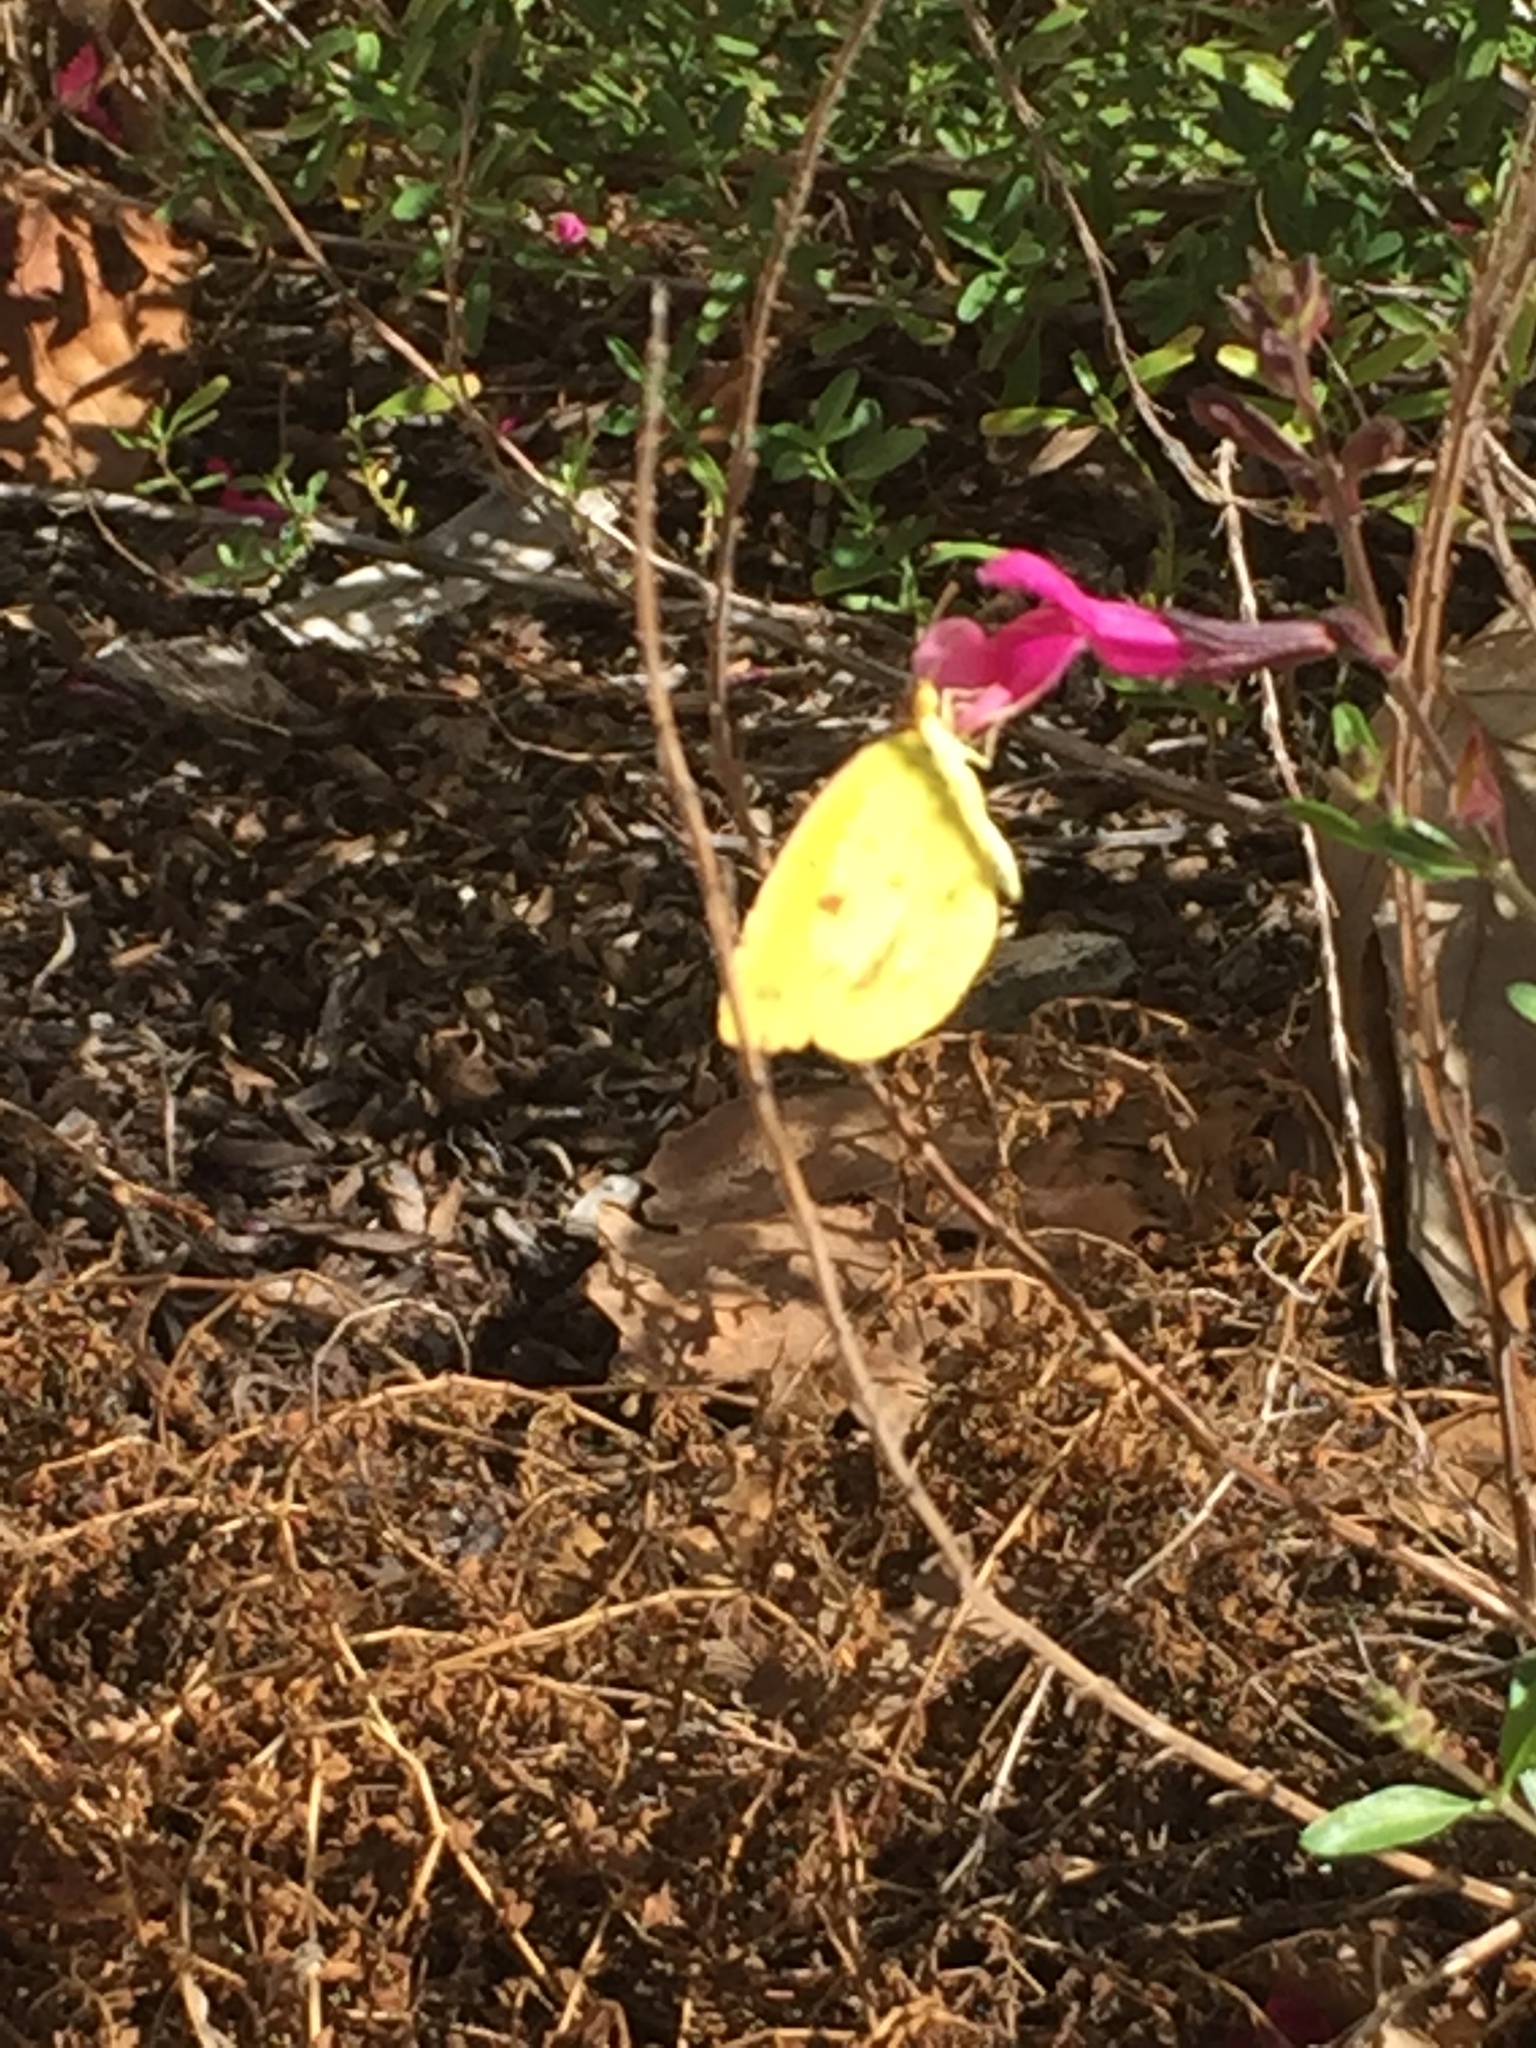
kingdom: Animalia
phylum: Arthropoda
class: Insecta
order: Lepidoptera
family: Pieridae
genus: Phoebis
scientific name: Phoebis sennae
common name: Cloudless sulphur
